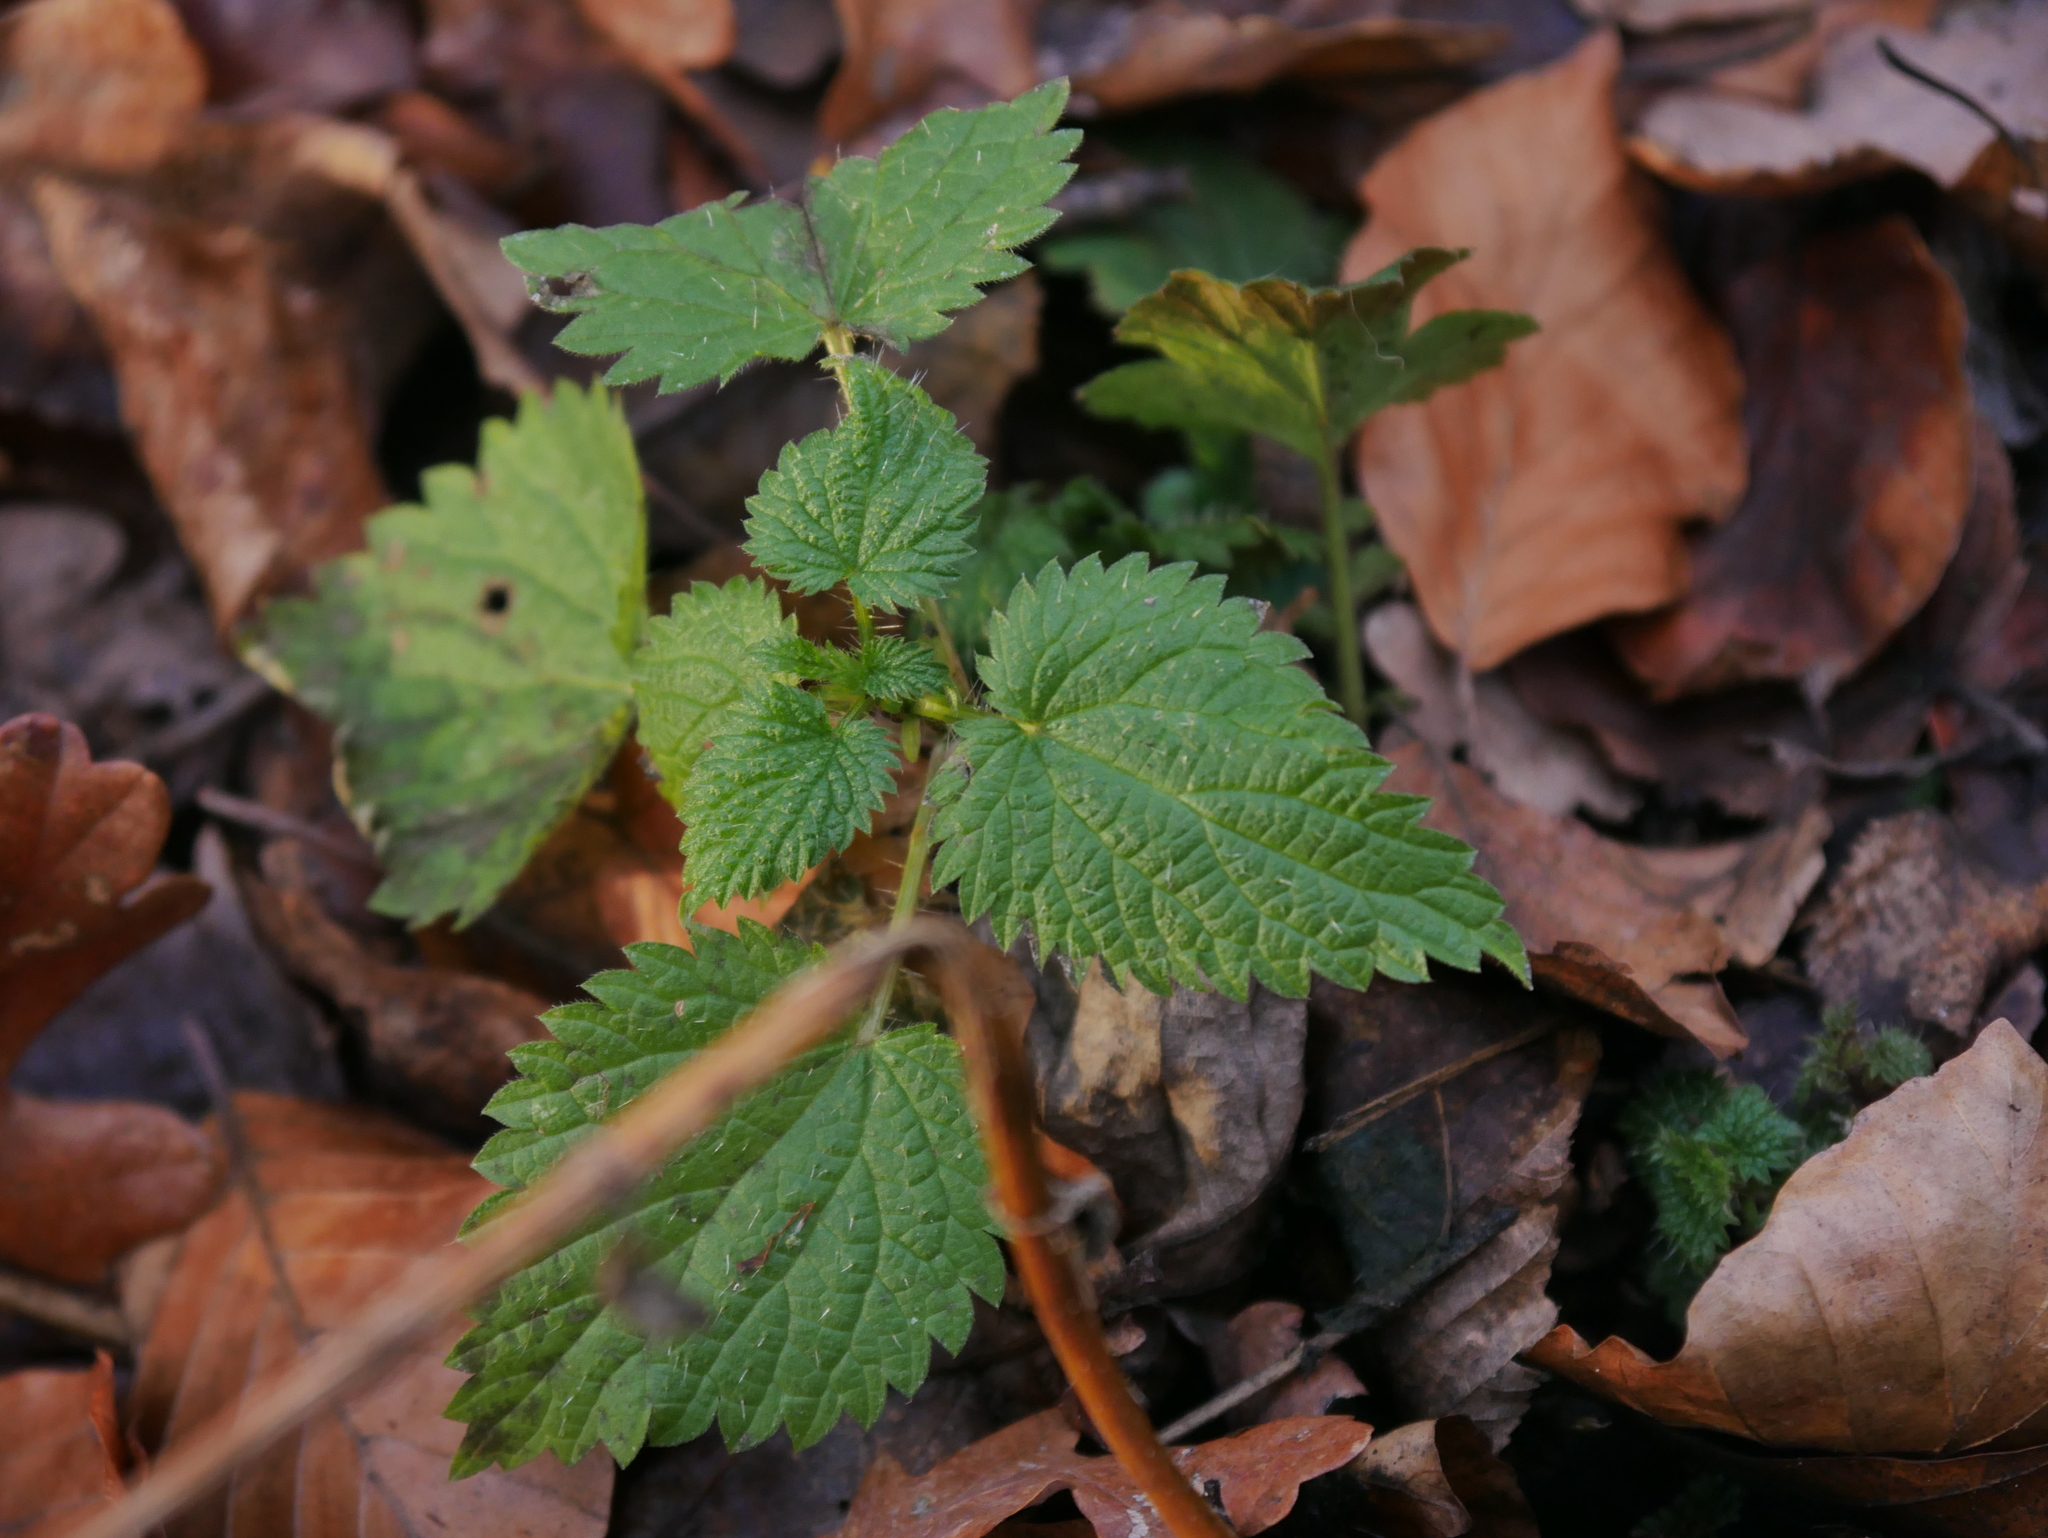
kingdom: Plantae
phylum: Tracheophyta
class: Magnoliopsida
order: Rosales
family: Urticaceae
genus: Urtica
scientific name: Urtica dioica
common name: Common nettle
